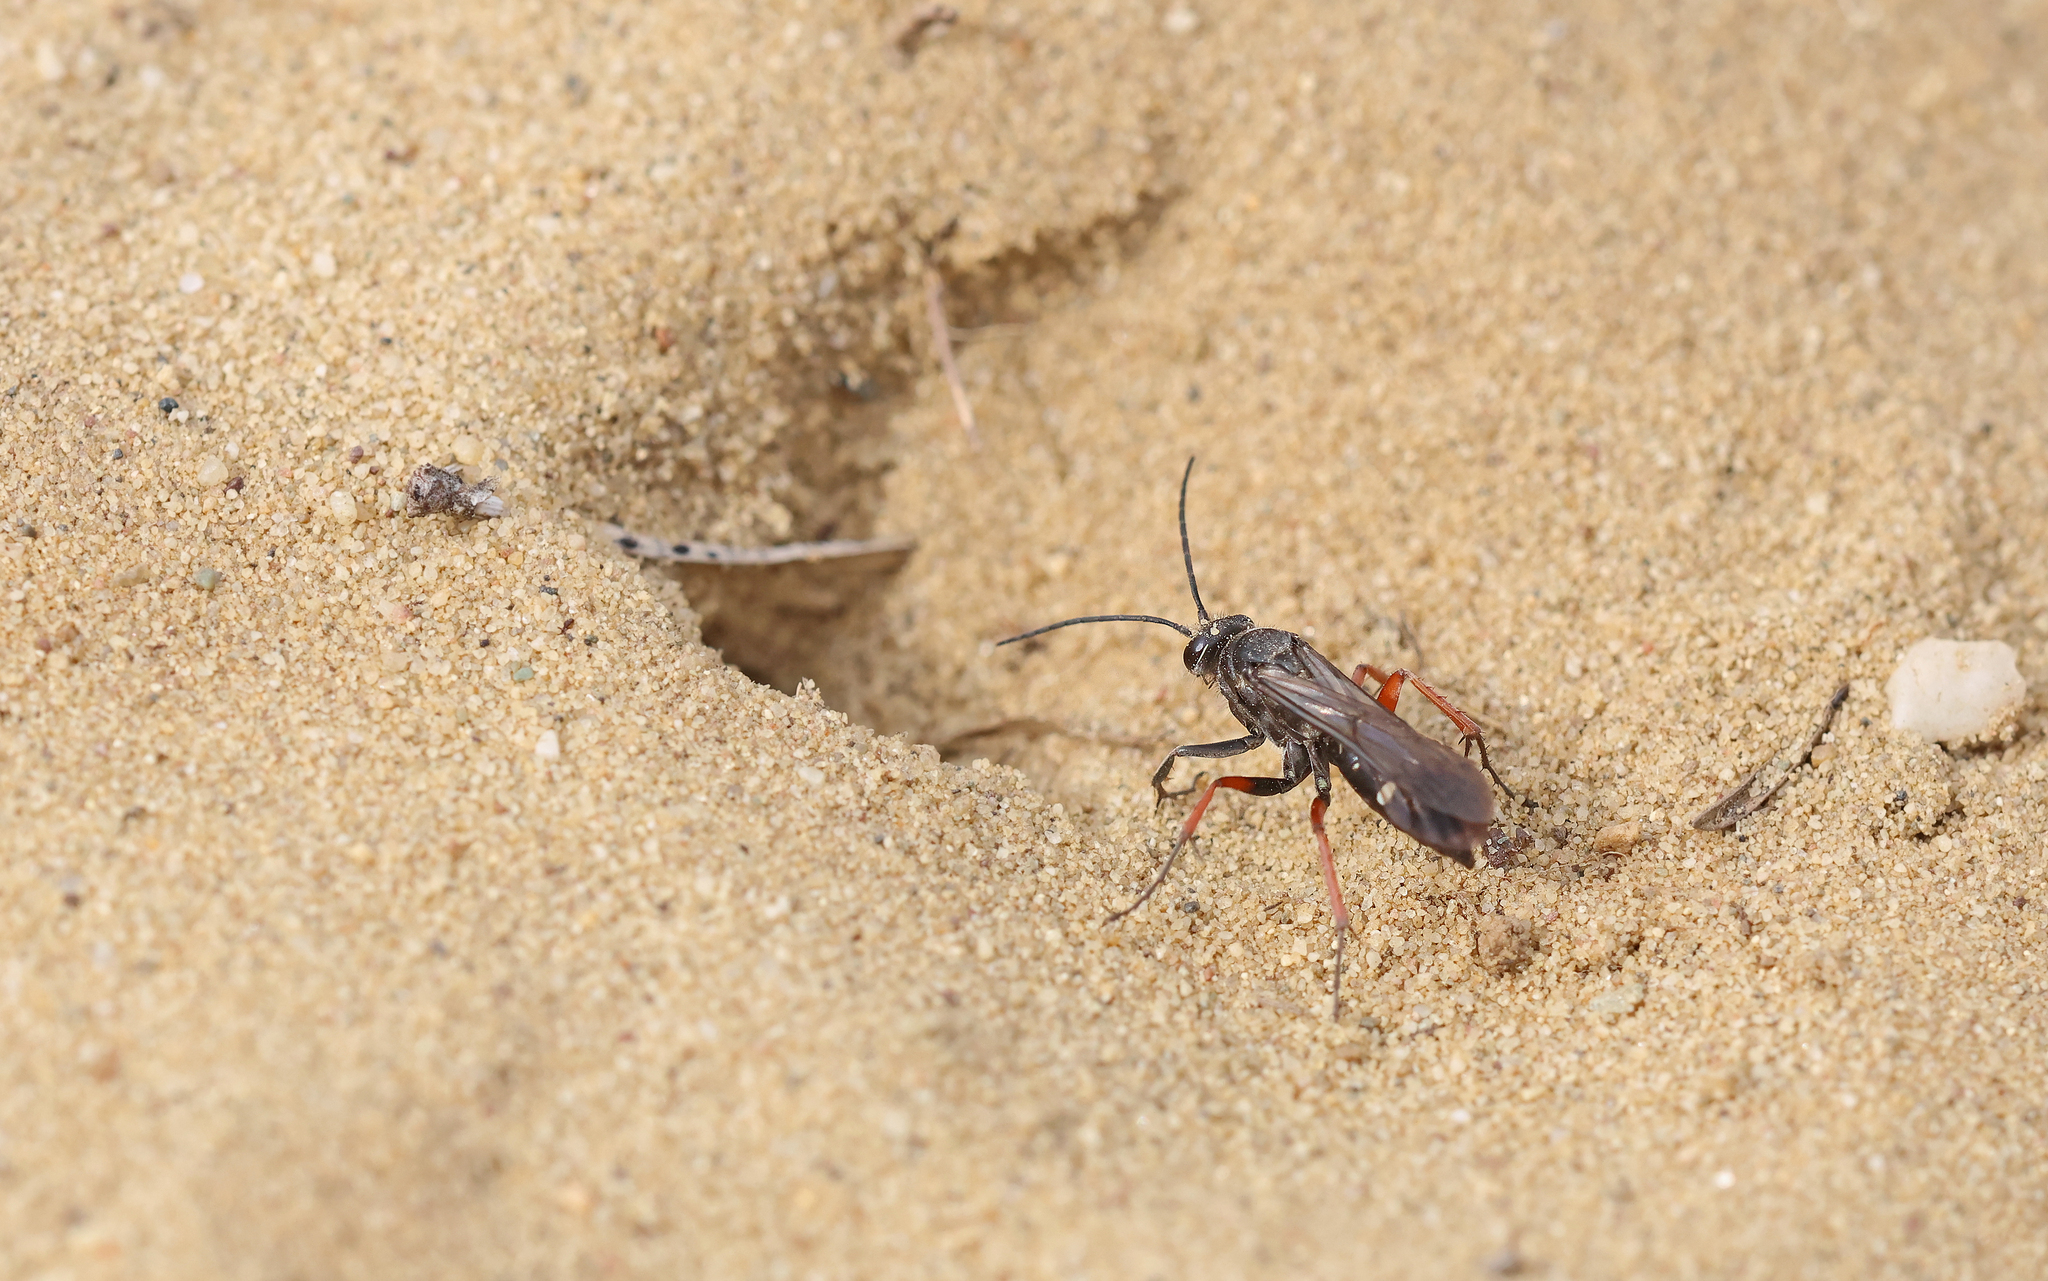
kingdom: Animalia
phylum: Arthropoda
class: Insecta
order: Hymenoptera
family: Pompilidae
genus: Episyron
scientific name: Episyron rufipes
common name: Red legged spider wasp
